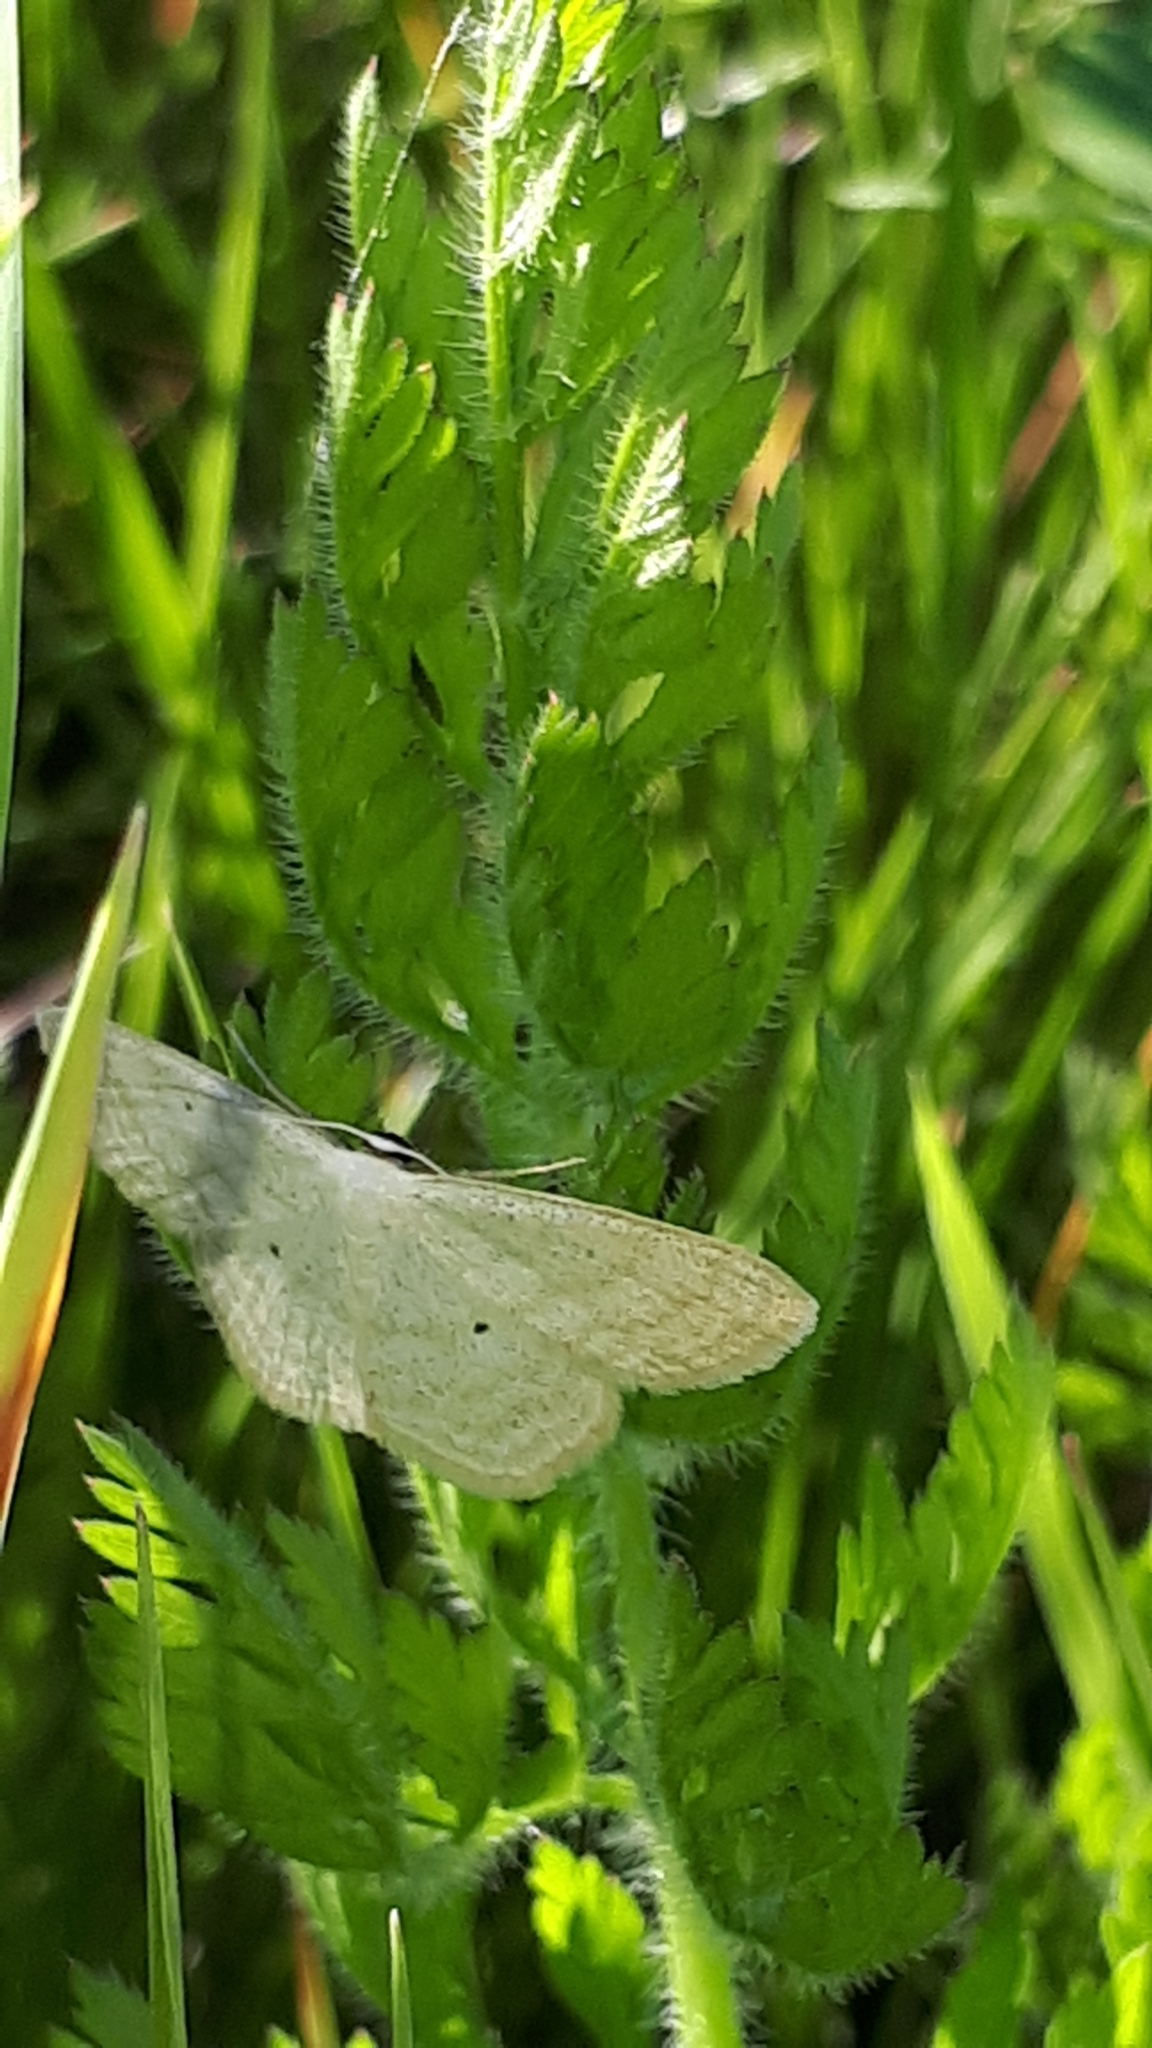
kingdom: Animalia
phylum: Arthropoda
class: Insecta
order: Lepidoptera
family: Geometridae
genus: Scopula
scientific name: Scopula nigropunctata
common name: Sub-angled wave
